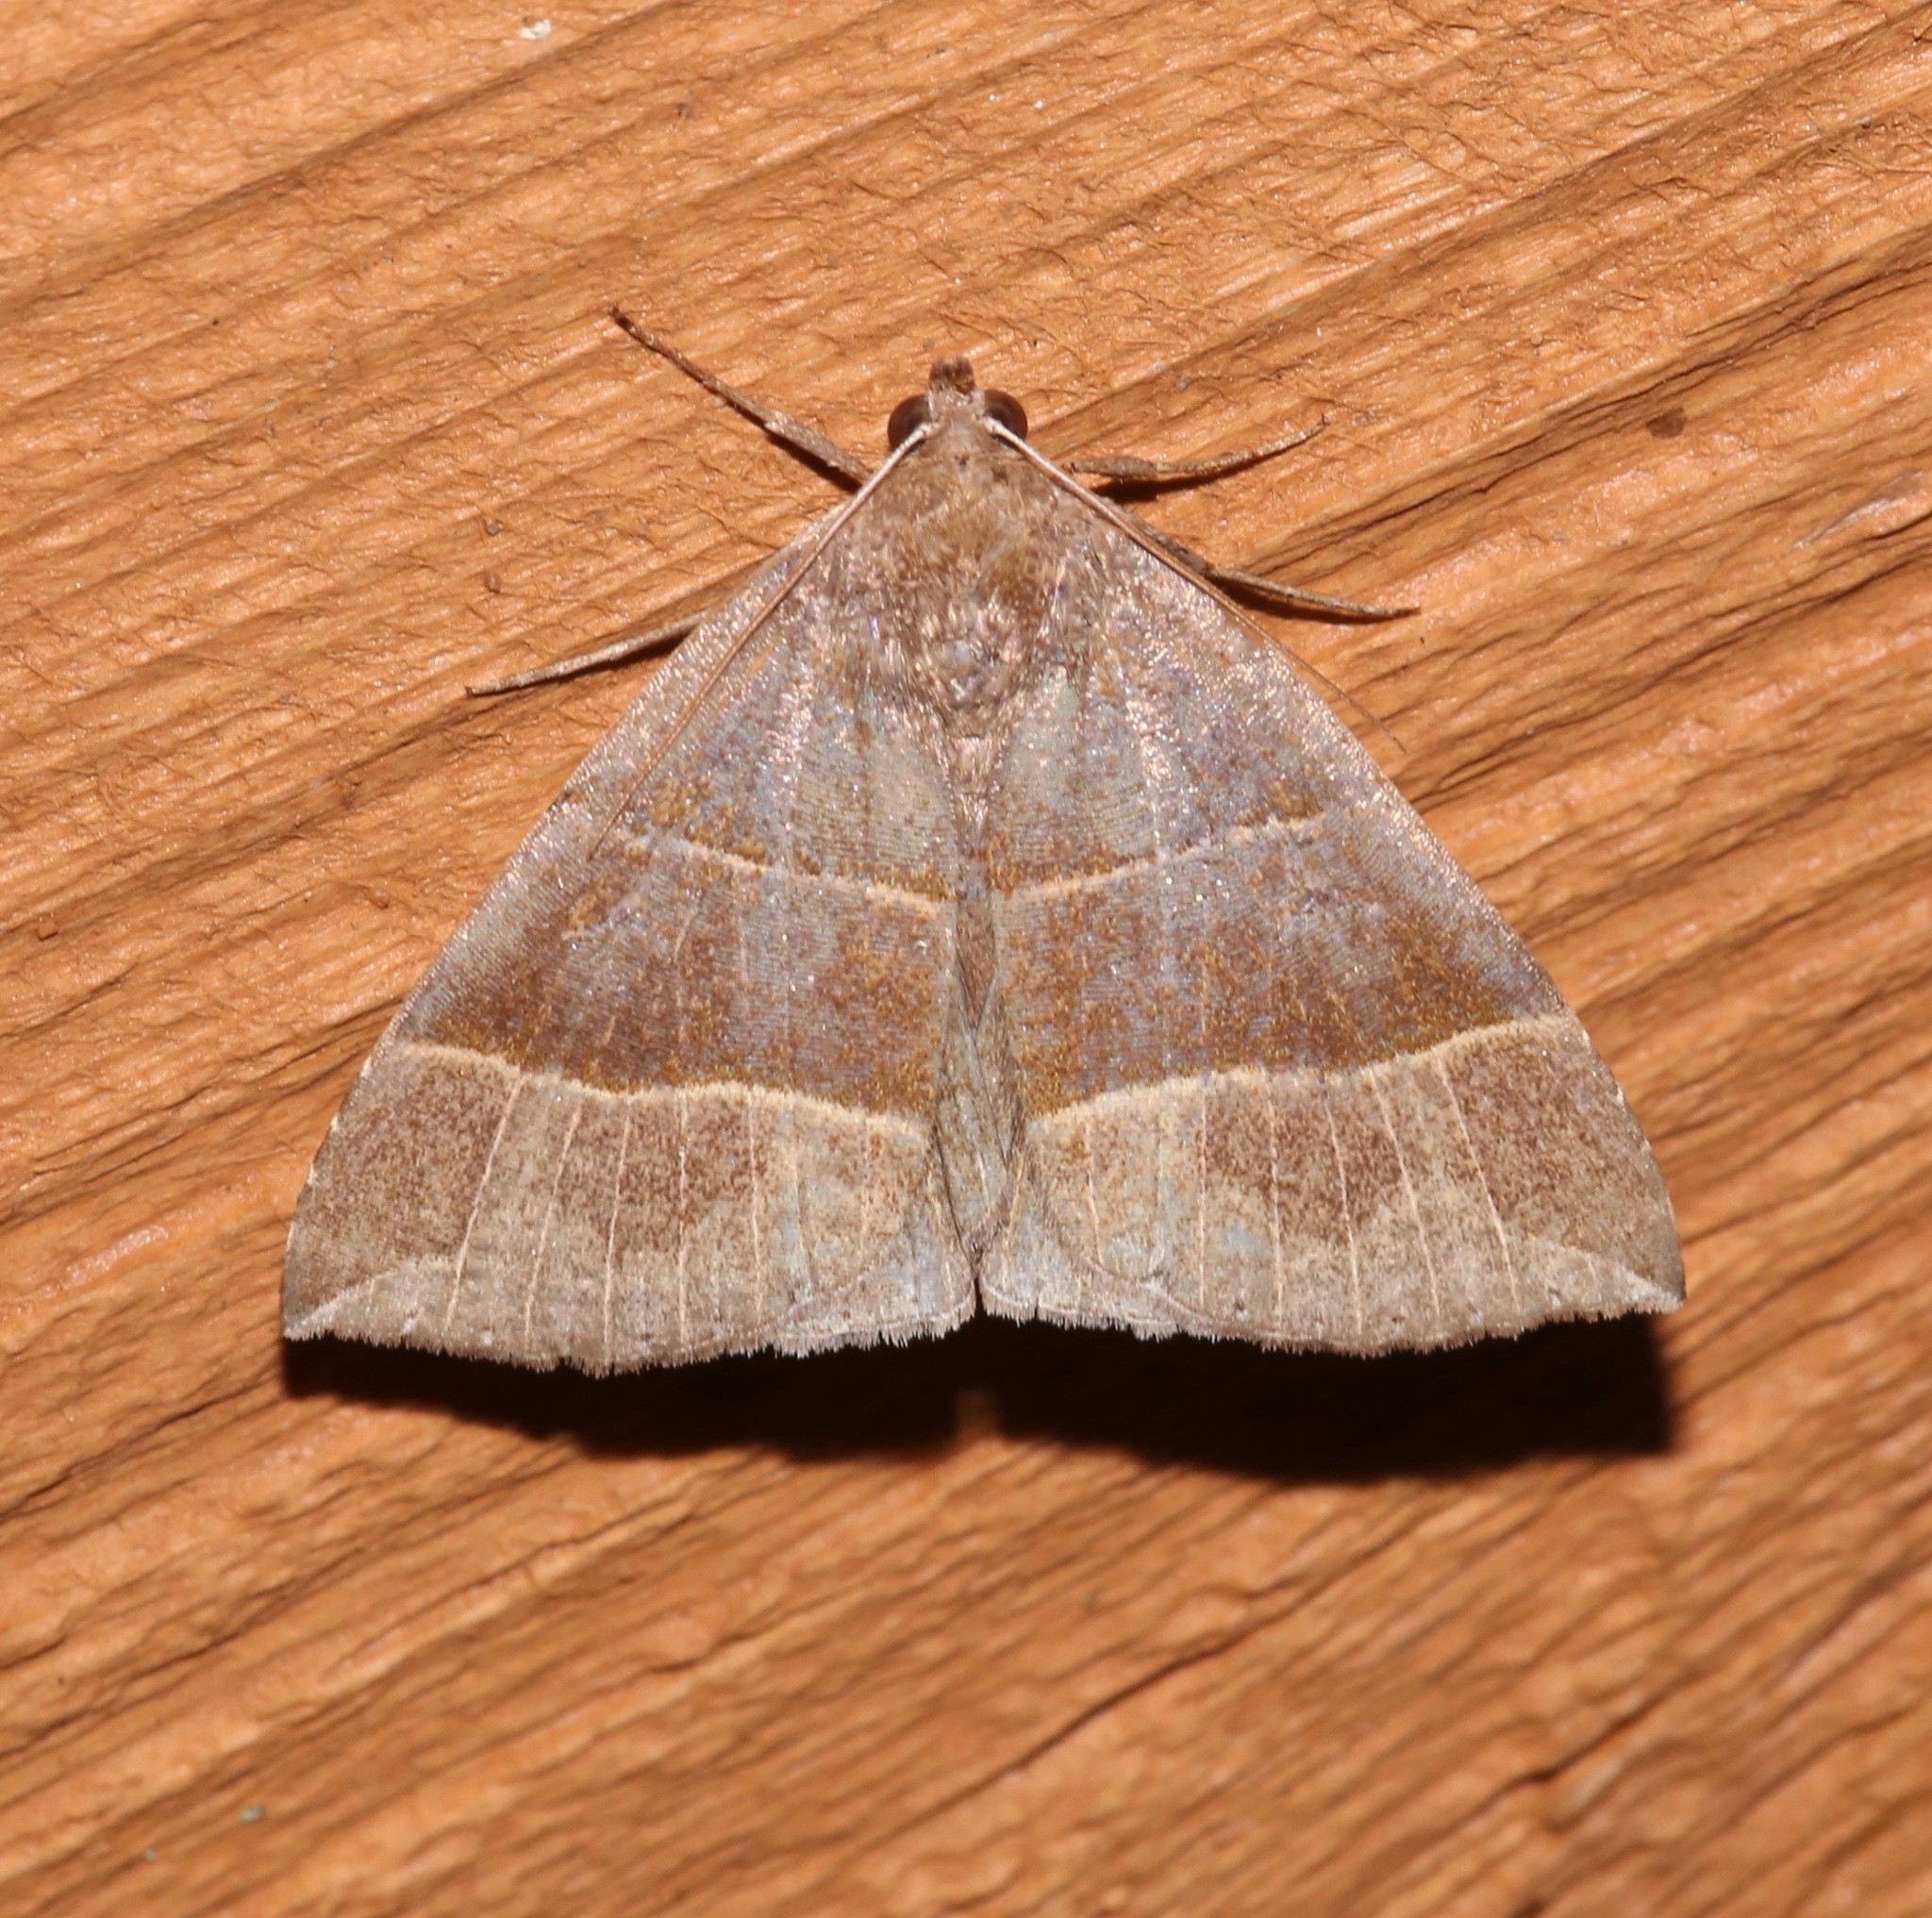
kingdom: Animalia
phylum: Arthropoda
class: Insecta
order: Lepidoptera
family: Erebidae
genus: Parallelia
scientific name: Parallelia bistriaris
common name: Maple looper moth
